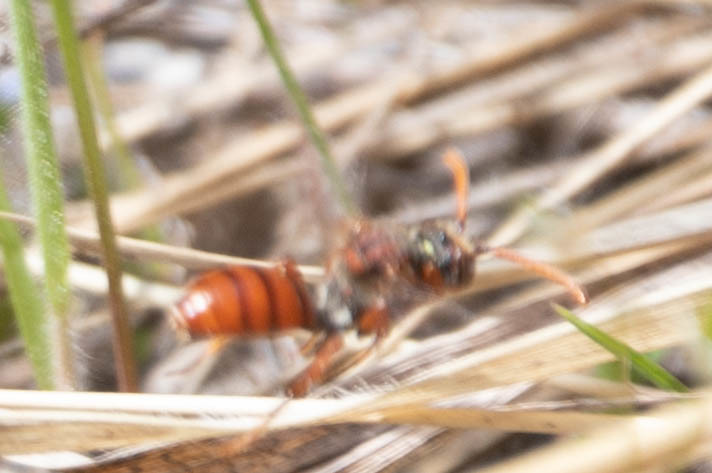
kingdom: Animalia
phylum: Arthropoda
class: Insecta
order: Hymenoptera
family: Apidae
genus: Nomada
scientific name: Nomada
